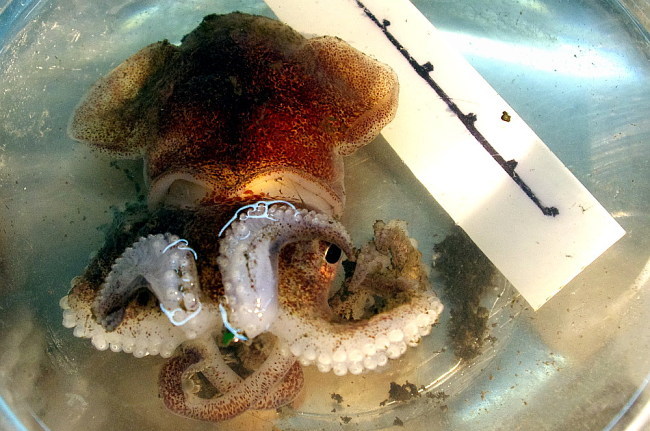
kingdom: Animalia
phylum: Mollusca
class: Cephalopoda
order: Sepiida
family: Sepiolidae
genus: Rossia
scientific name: Rossia palpebrosa
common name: Warty bobtail squid
